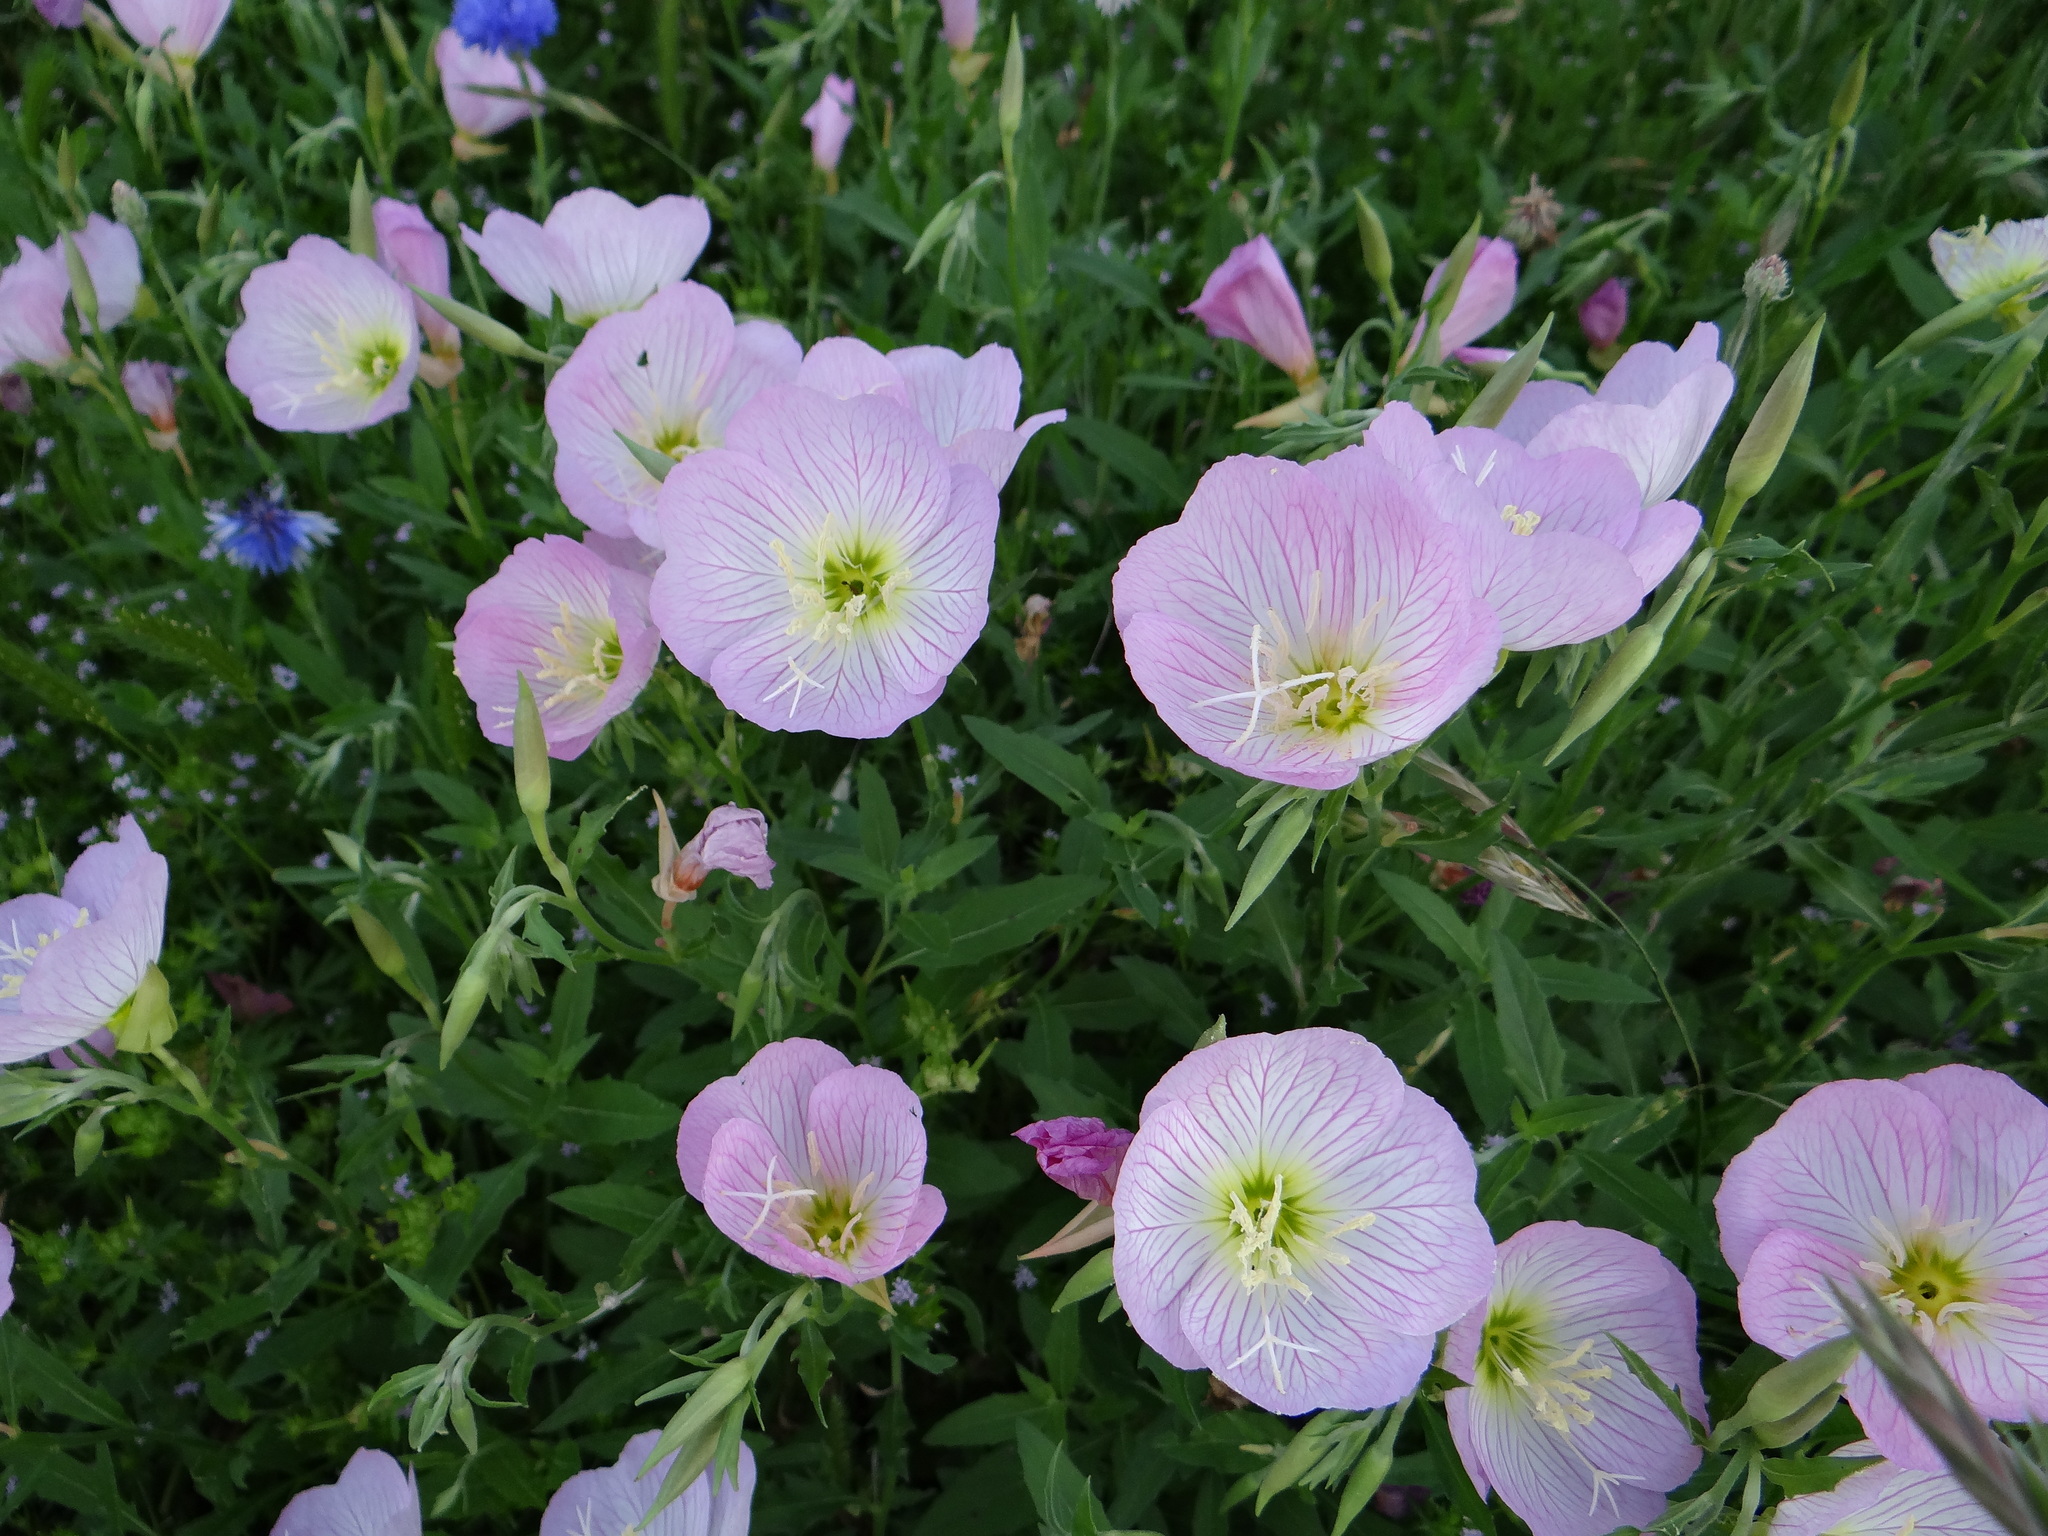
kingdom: Plantae
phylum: Tracheophyta
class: Magnoliopsida
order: Myrtales
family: Onagraceae
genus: Oenothera
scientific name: Oenothera speciosa
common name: White evening-primrose
